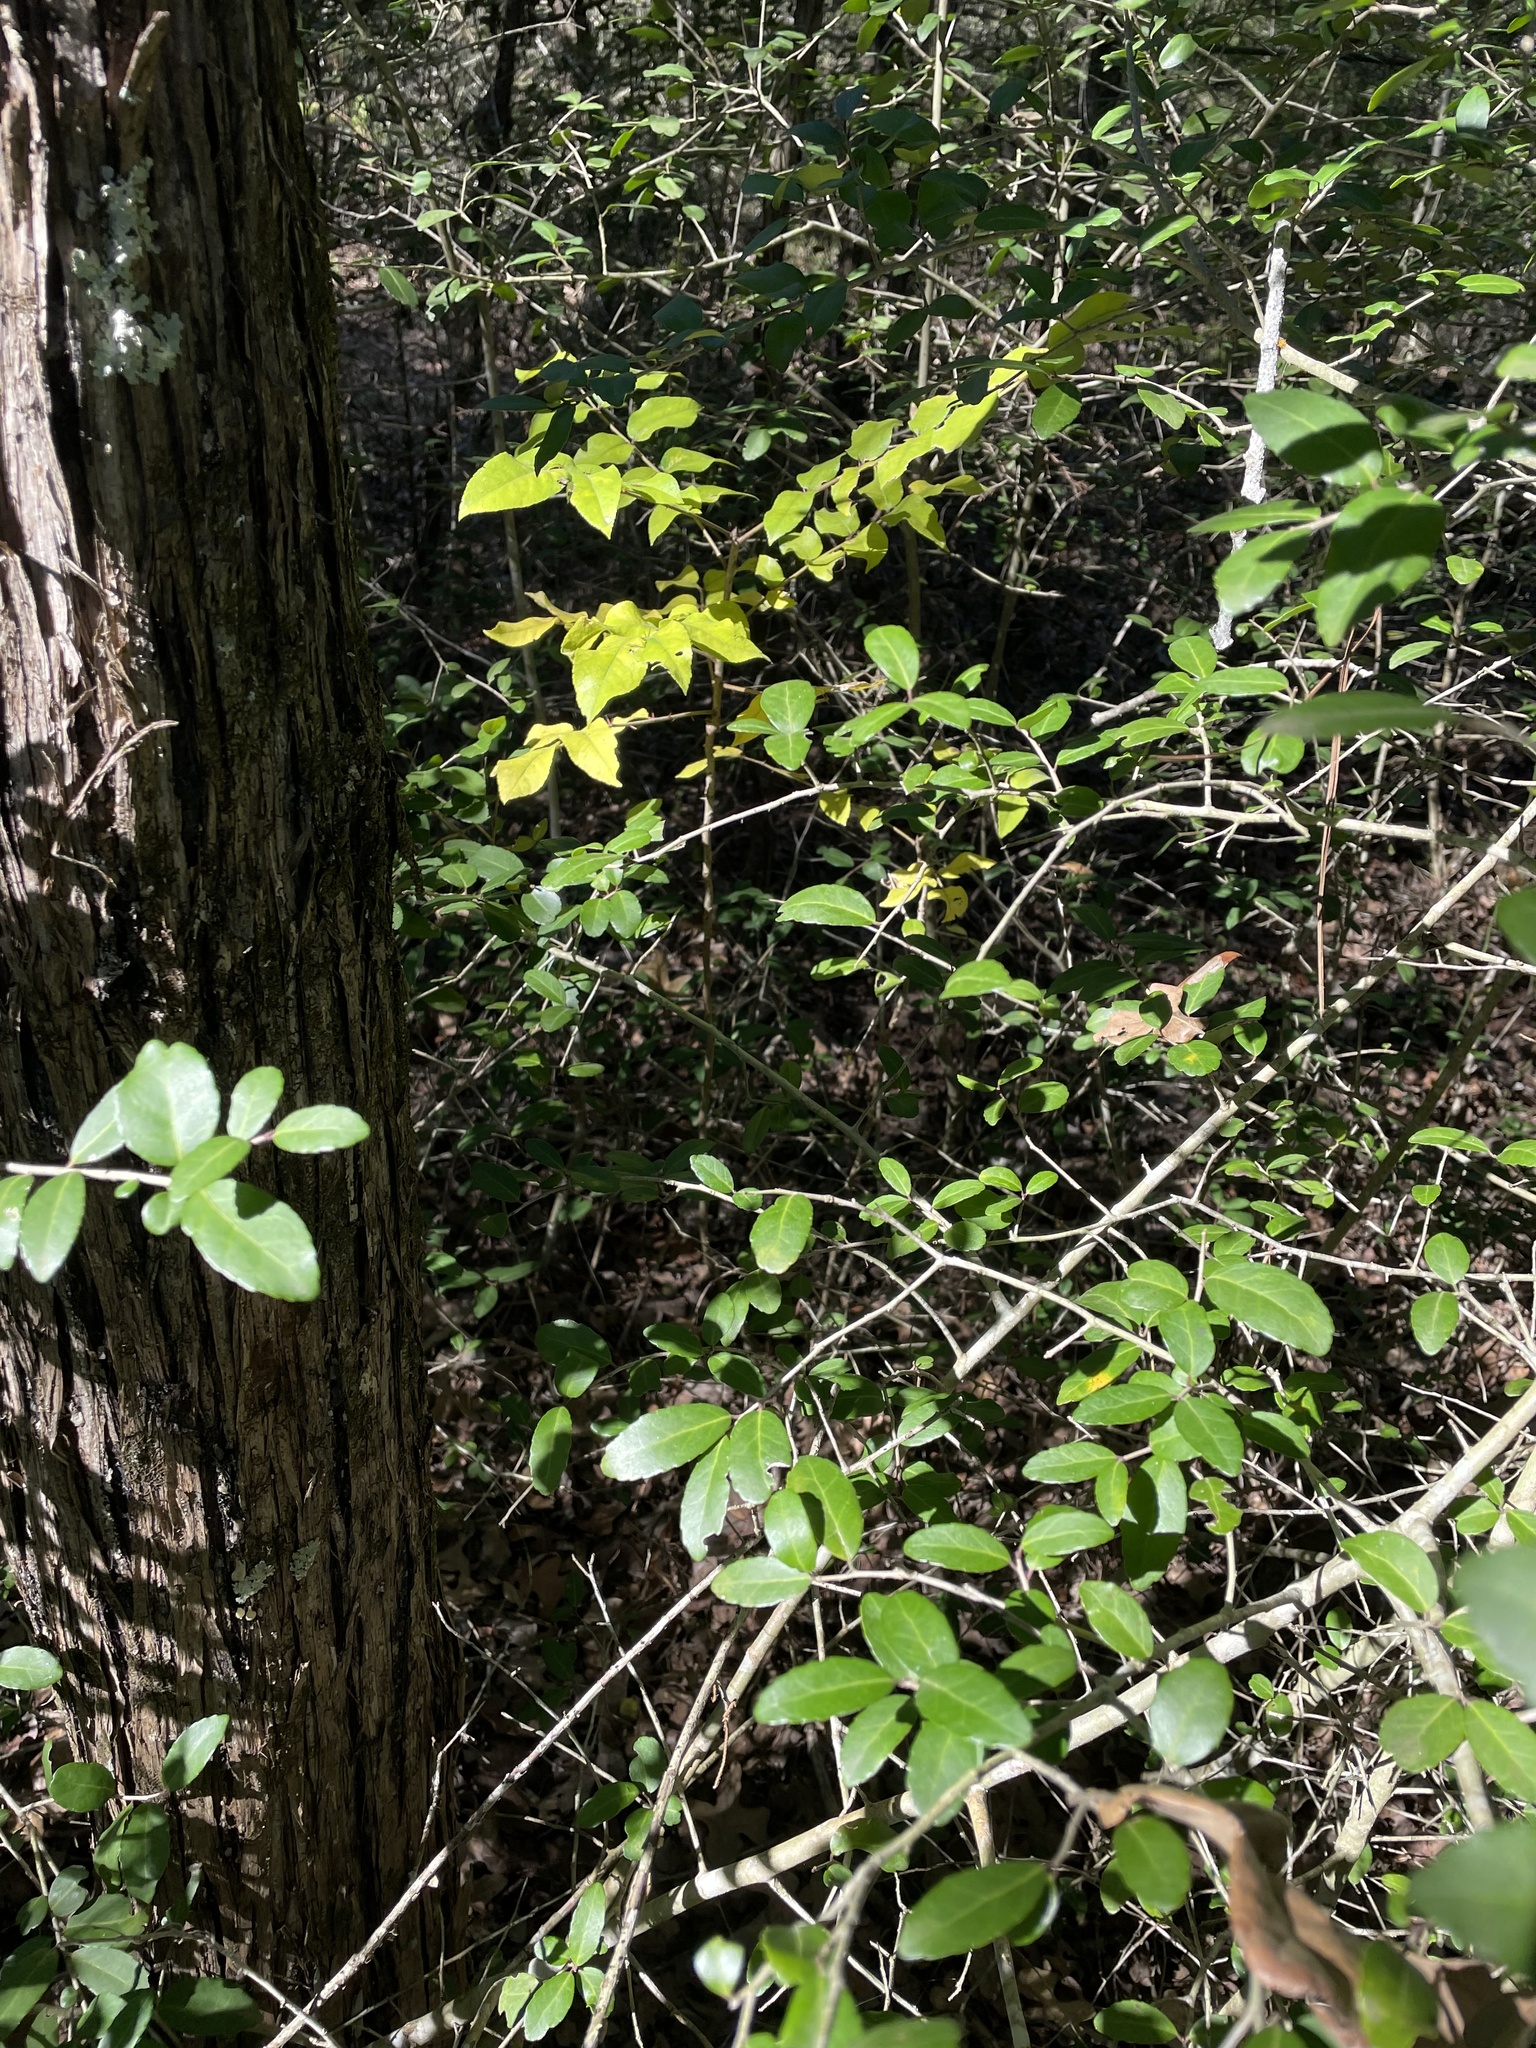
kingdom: Plantae
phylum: Tracheophyta
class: Magnoliopsida
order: Sapindales
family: Rutaceae
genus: Zanthoxylum
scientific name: Zanthoxylum clava-herculis
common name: Hercules'-club
